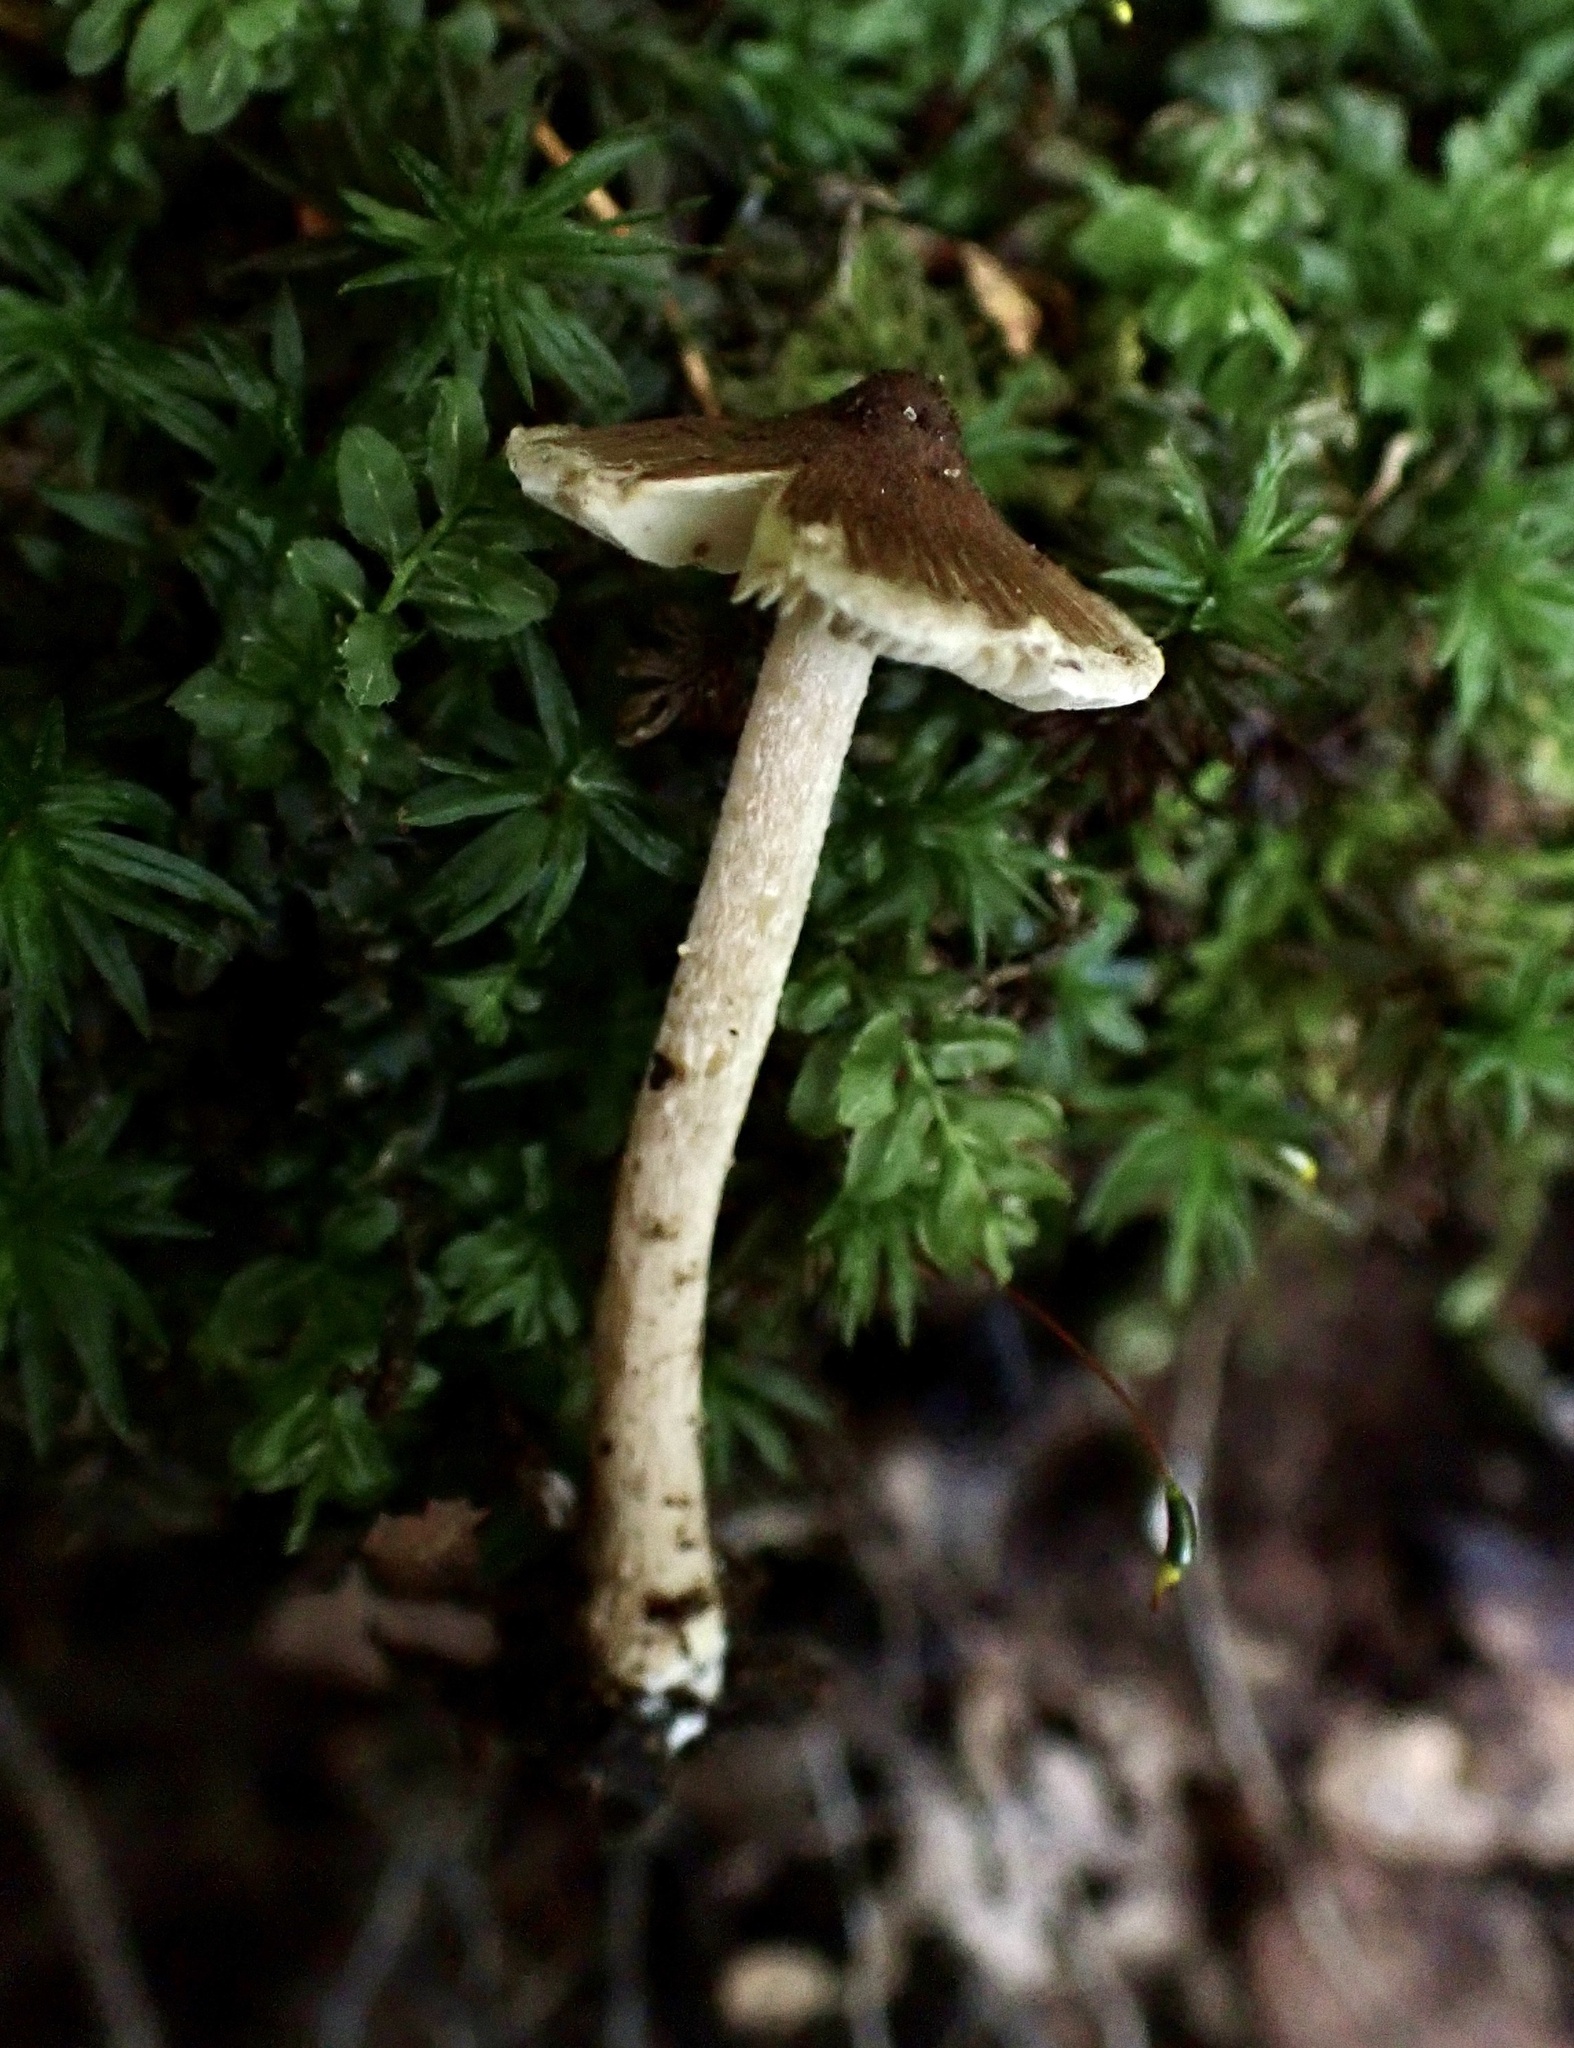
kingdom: Fungi
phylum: Basidiomycota
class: Agaricomycetes
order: Agaricales
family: Inocybaceae
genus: Inocybe
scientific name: Inocybe intricata
